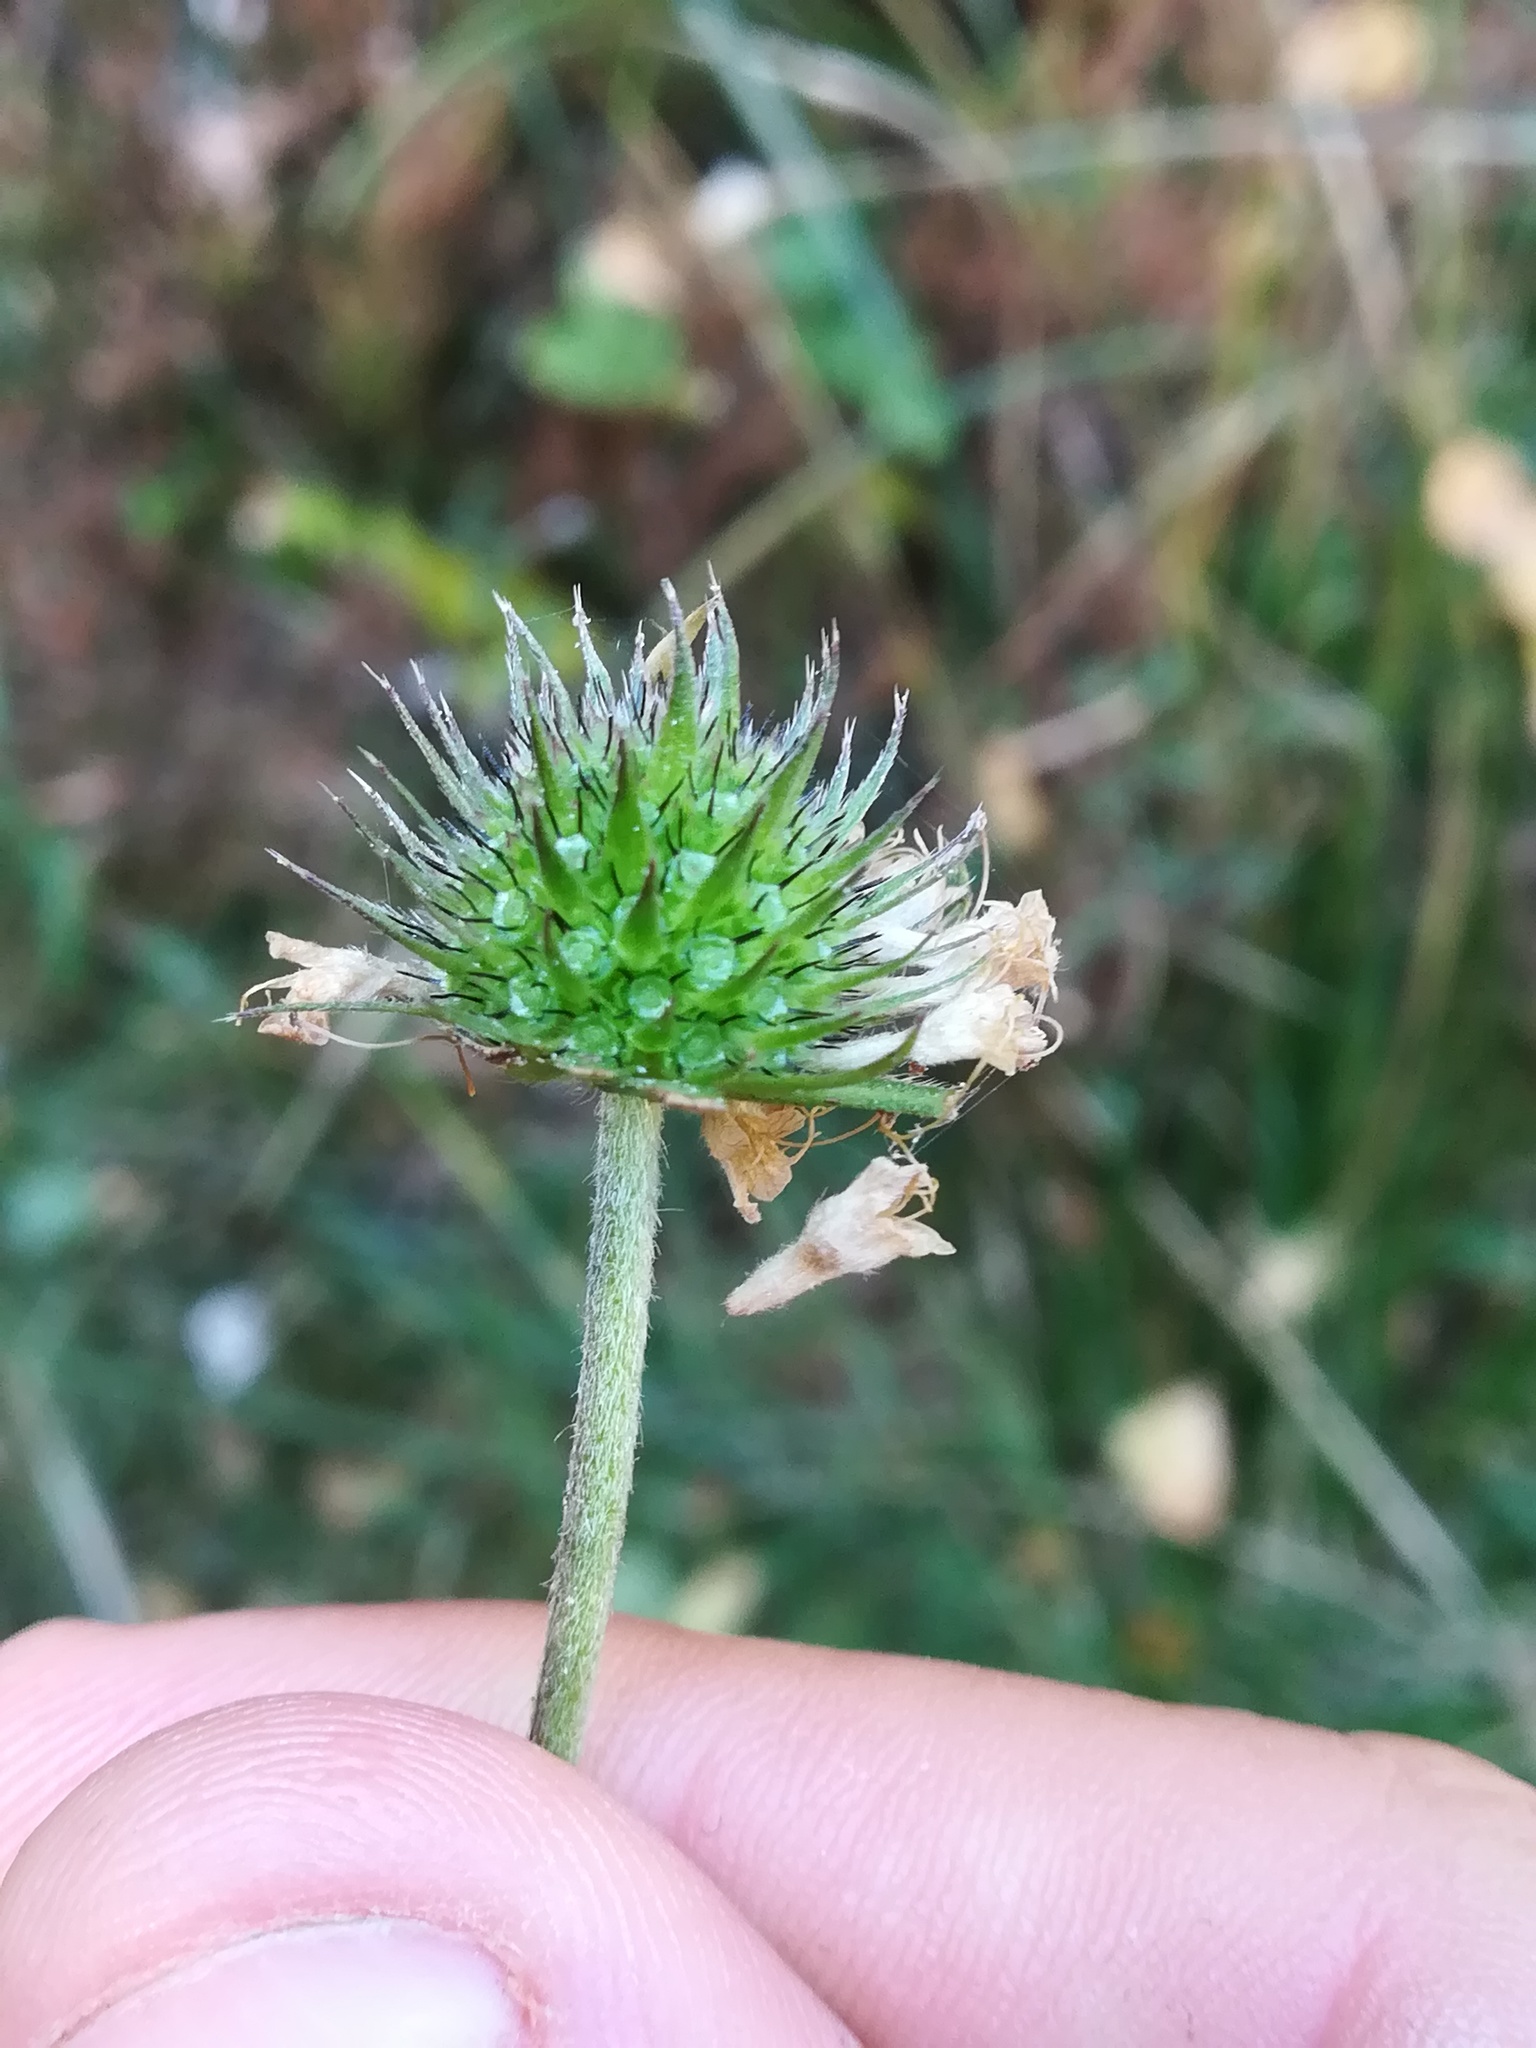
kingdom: Plantae
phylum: Tracheophyta
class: Magnoliopsida
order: Dipsacales
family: Caprifoliaceae
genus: Succisa
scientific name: Succisa pratensis
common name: Devil's-bit
